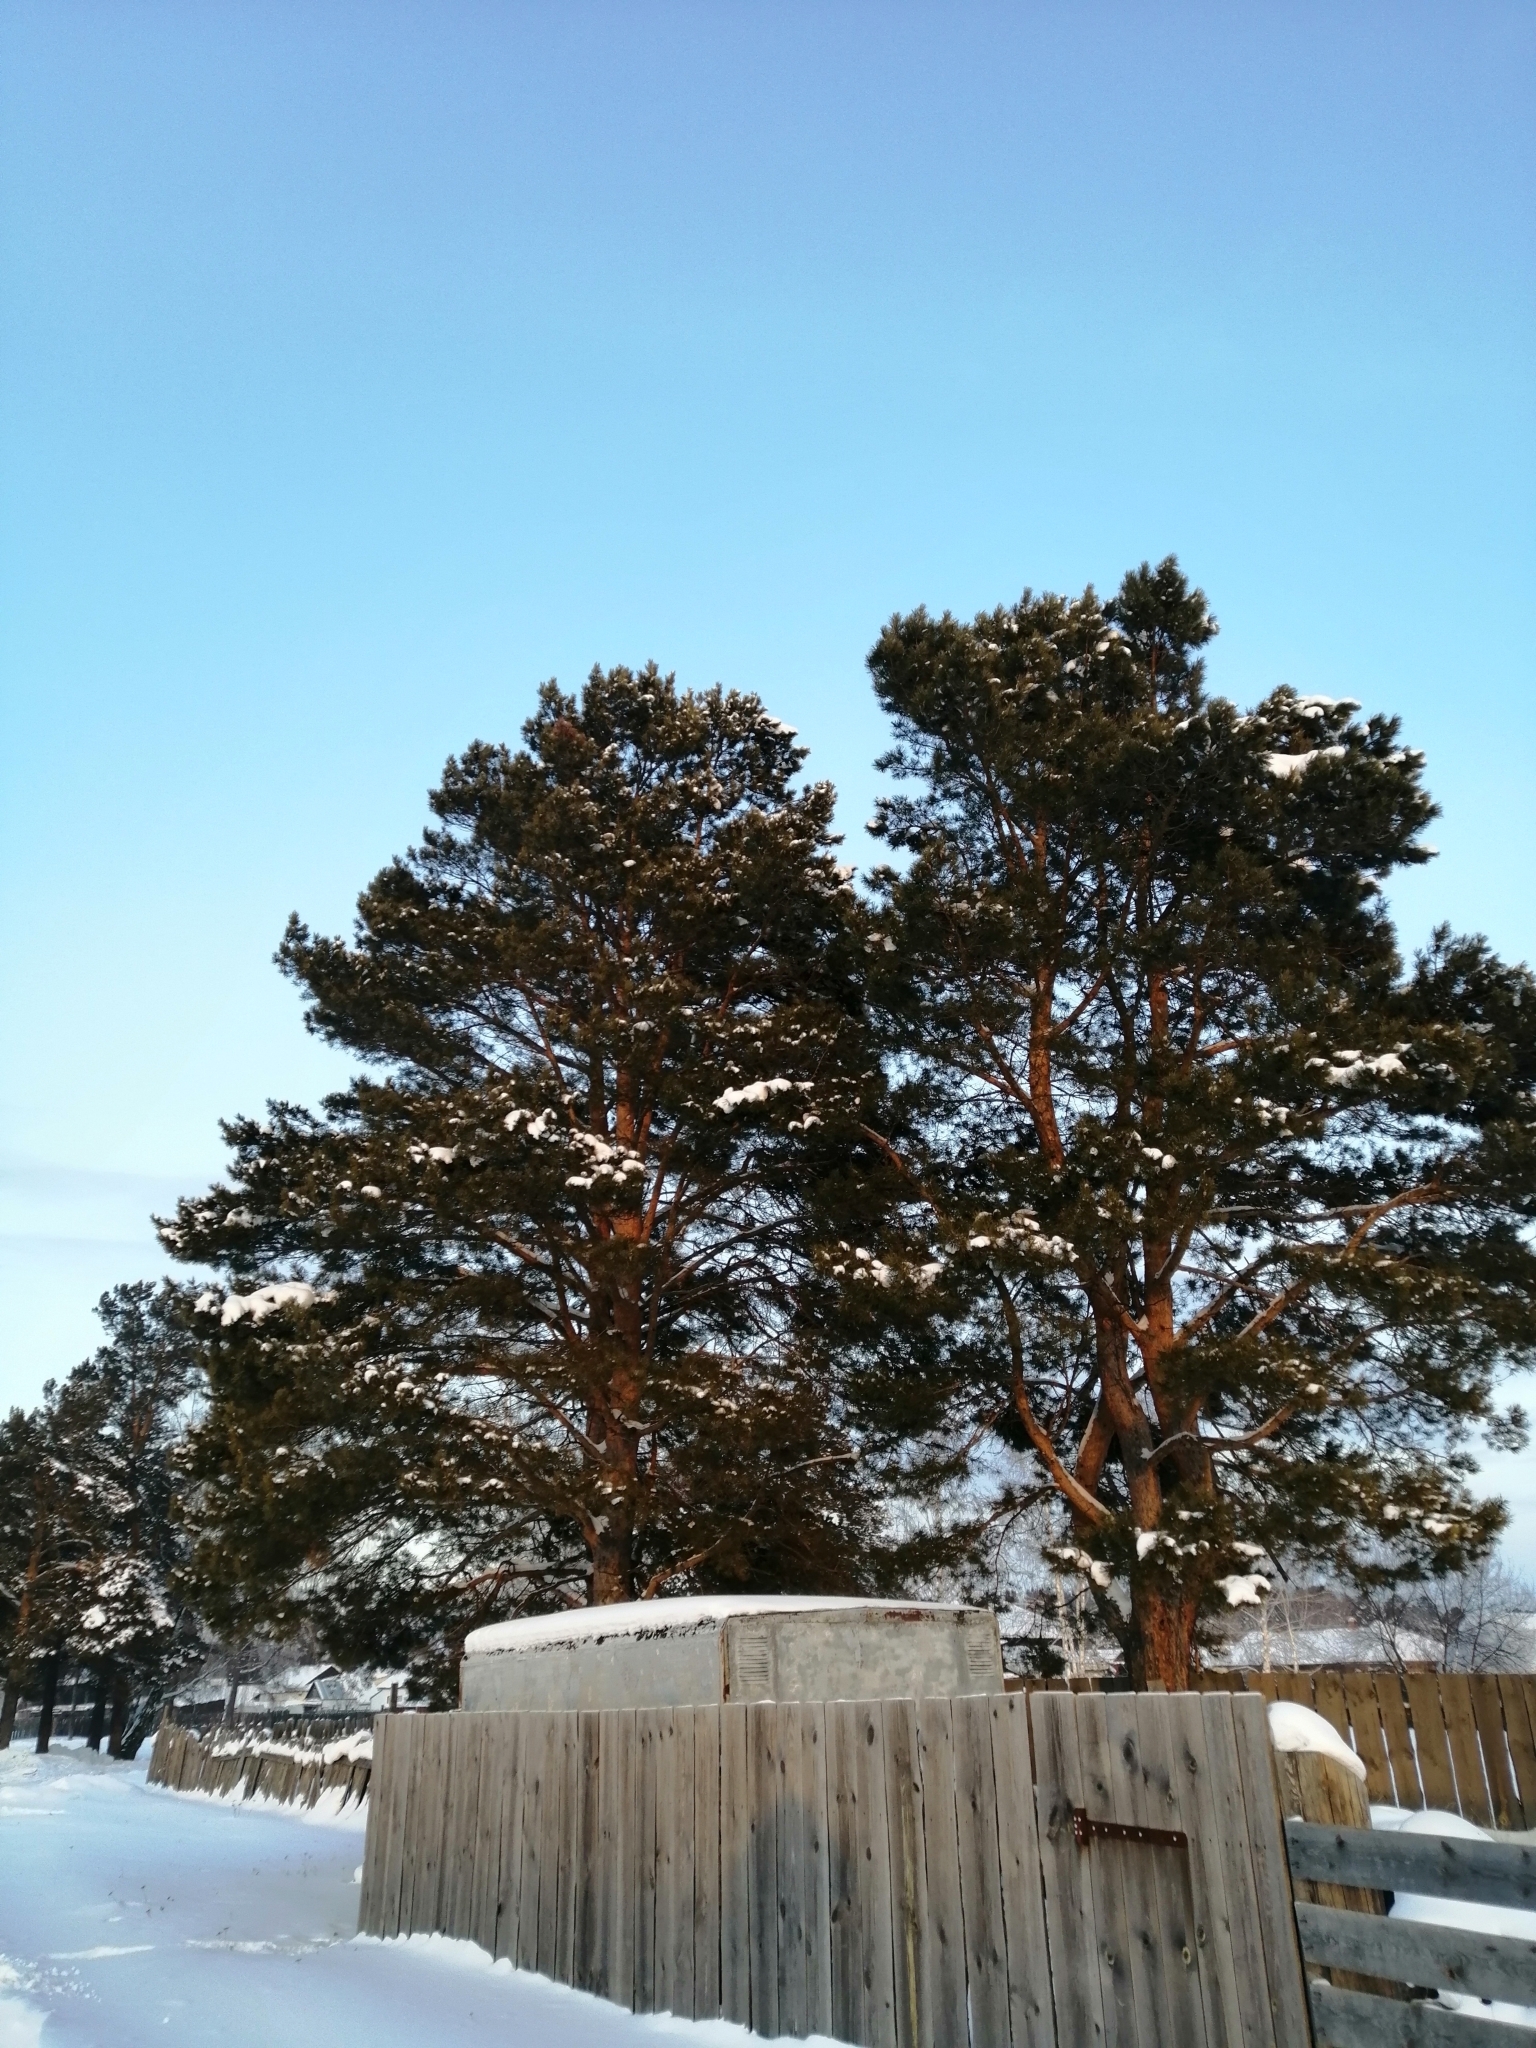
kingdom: Plantae
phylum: Tracheophyta
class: Pinopsida
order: Pinales
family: Pinaceae
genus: Pinus
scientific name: Pinus sylvestris
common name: Scots pine
